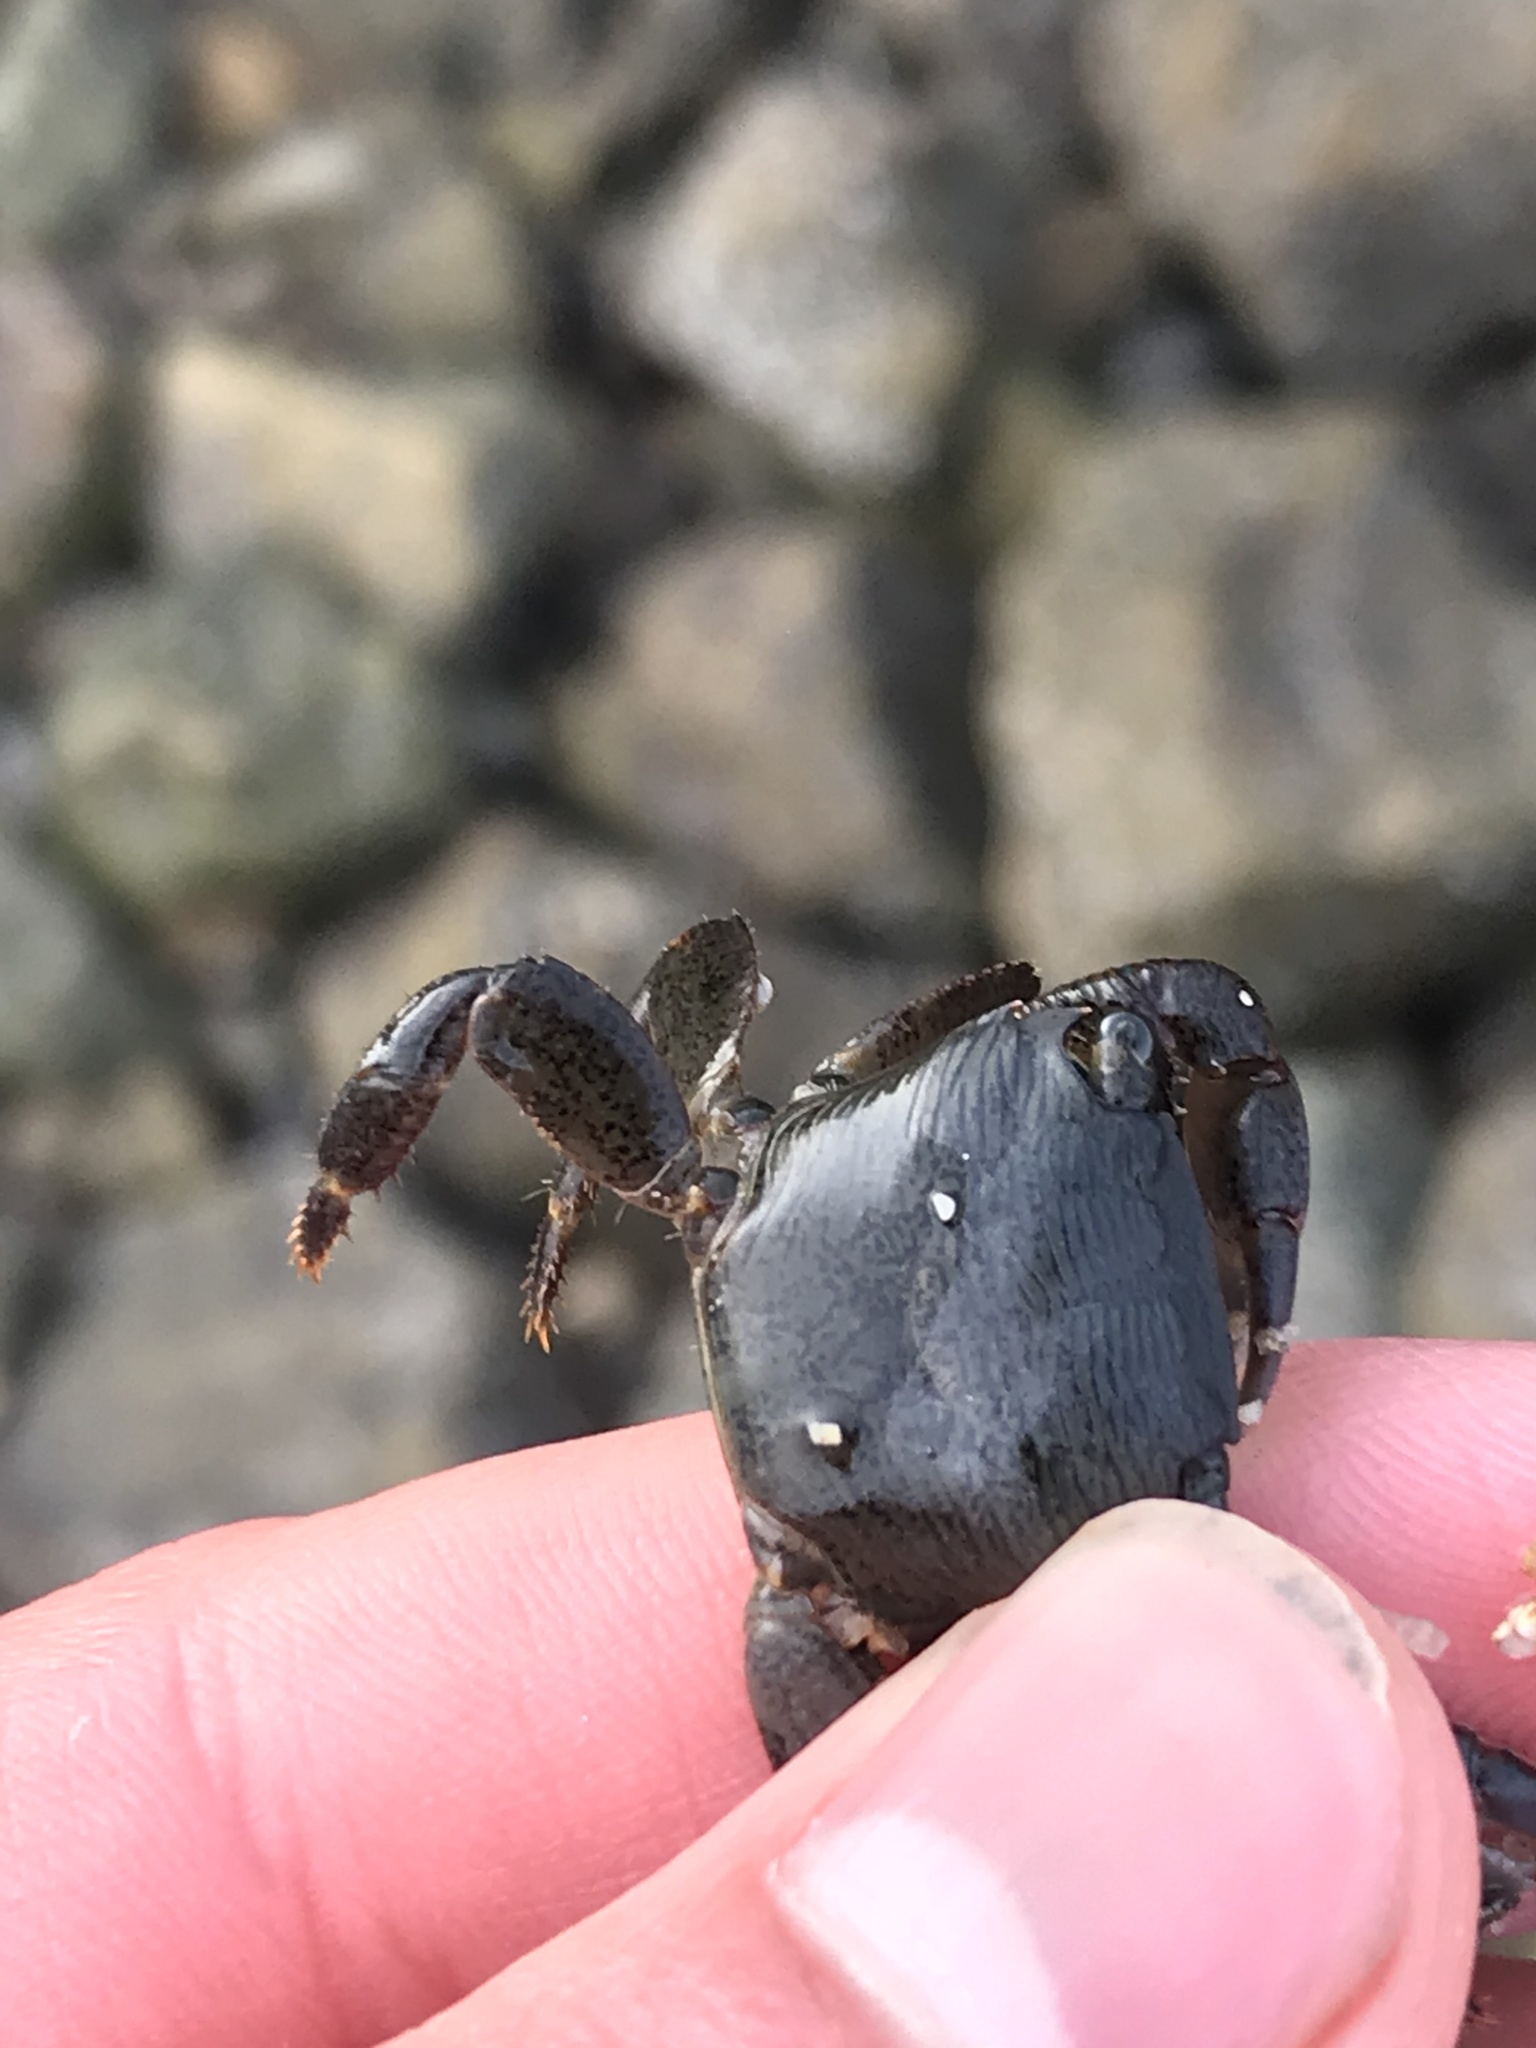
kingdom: Animalia
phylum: Arthropoda
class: Malacostraca
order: Decapoda
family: Grapsidae
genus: Pachygrapsus
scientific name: Pachygrapsus crassipes
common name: Striped shore crab
